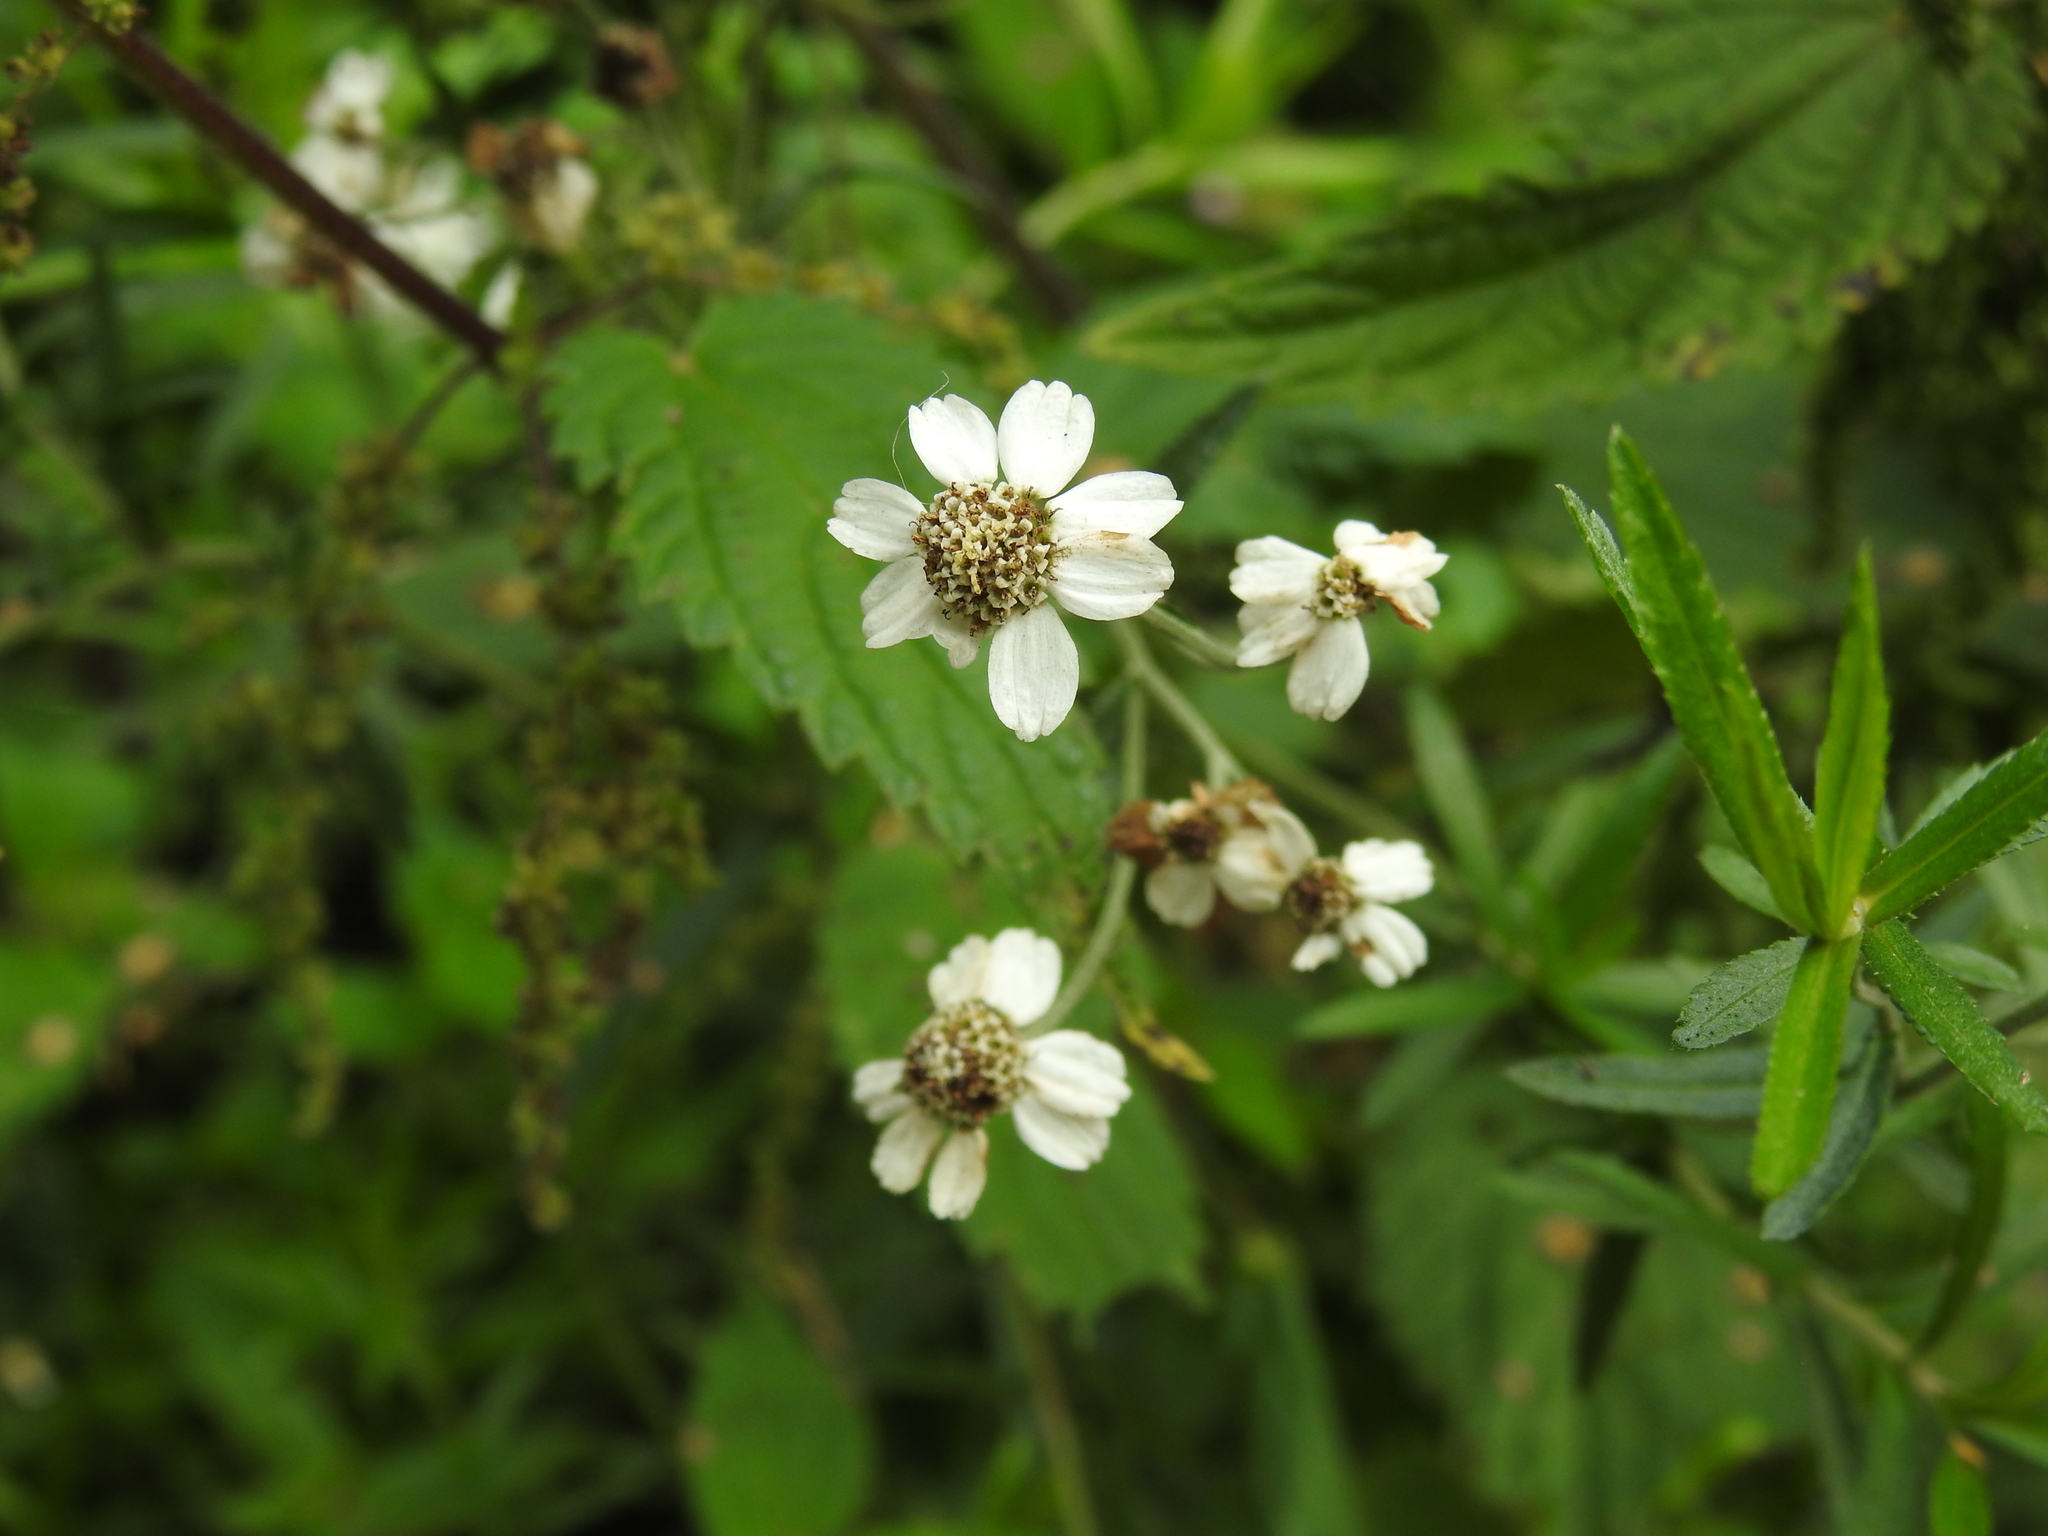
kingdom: Plantae
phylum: Tracheophyta
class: Magnoliopsida
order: Asterales
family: Asteraceae
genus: Achillea
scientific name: Achillea ptarmica
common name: Sneezeweed
